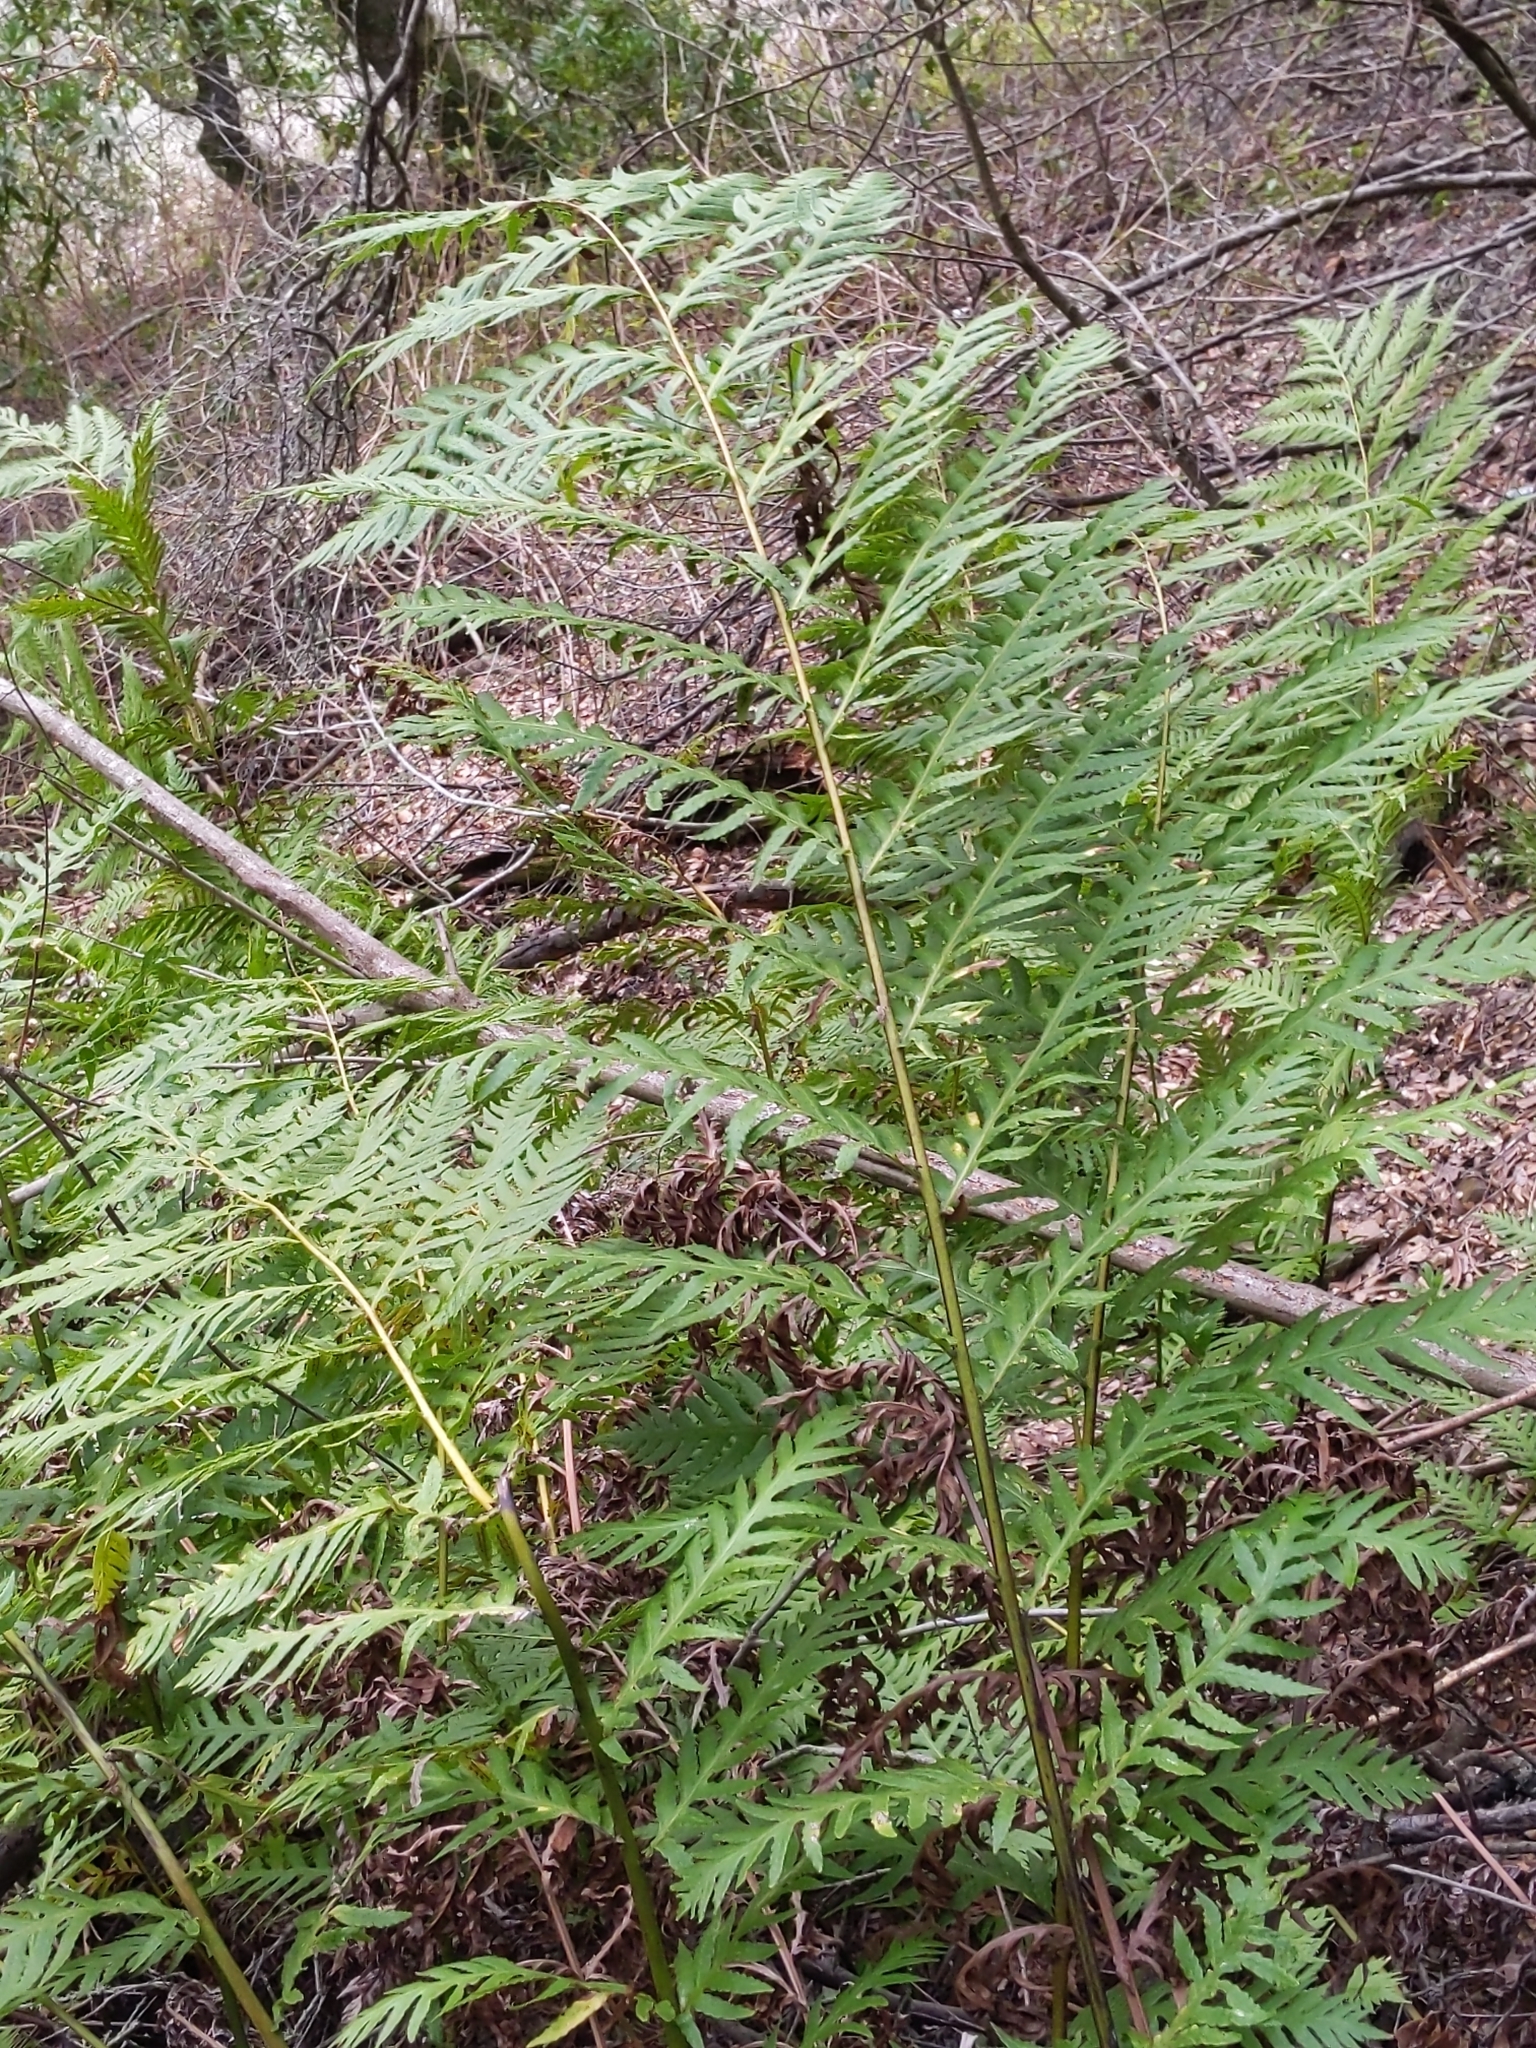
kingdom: Plantae
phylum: Tracheophyta
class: Polypodiopsida
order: Polypodiales
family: Blechnaceae
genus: Woodwardia
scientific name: Woodwardia fimbriata
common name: Giant chain fern
